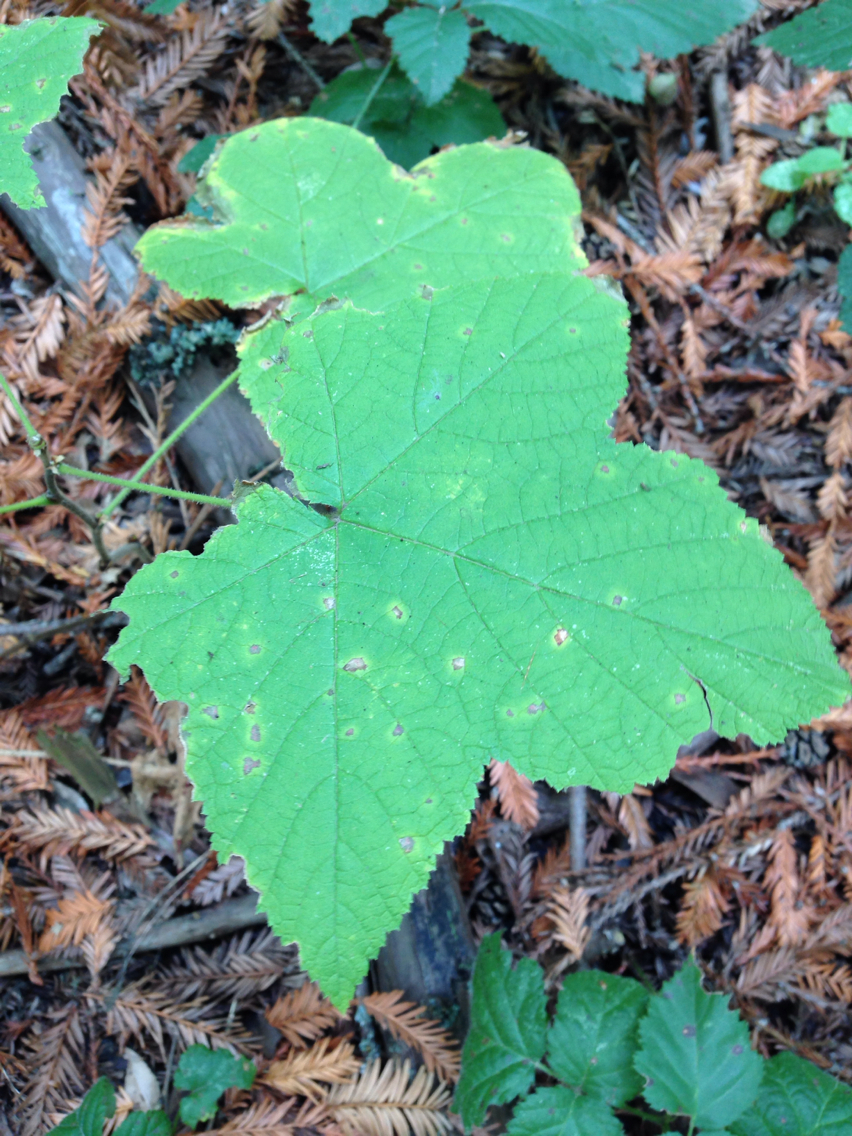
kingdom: Plantae
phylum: Tracheophyta
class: Magnoliopsida
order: Rosales
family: Rosaceae
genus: Rubus
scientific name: Rubus parviflorus
